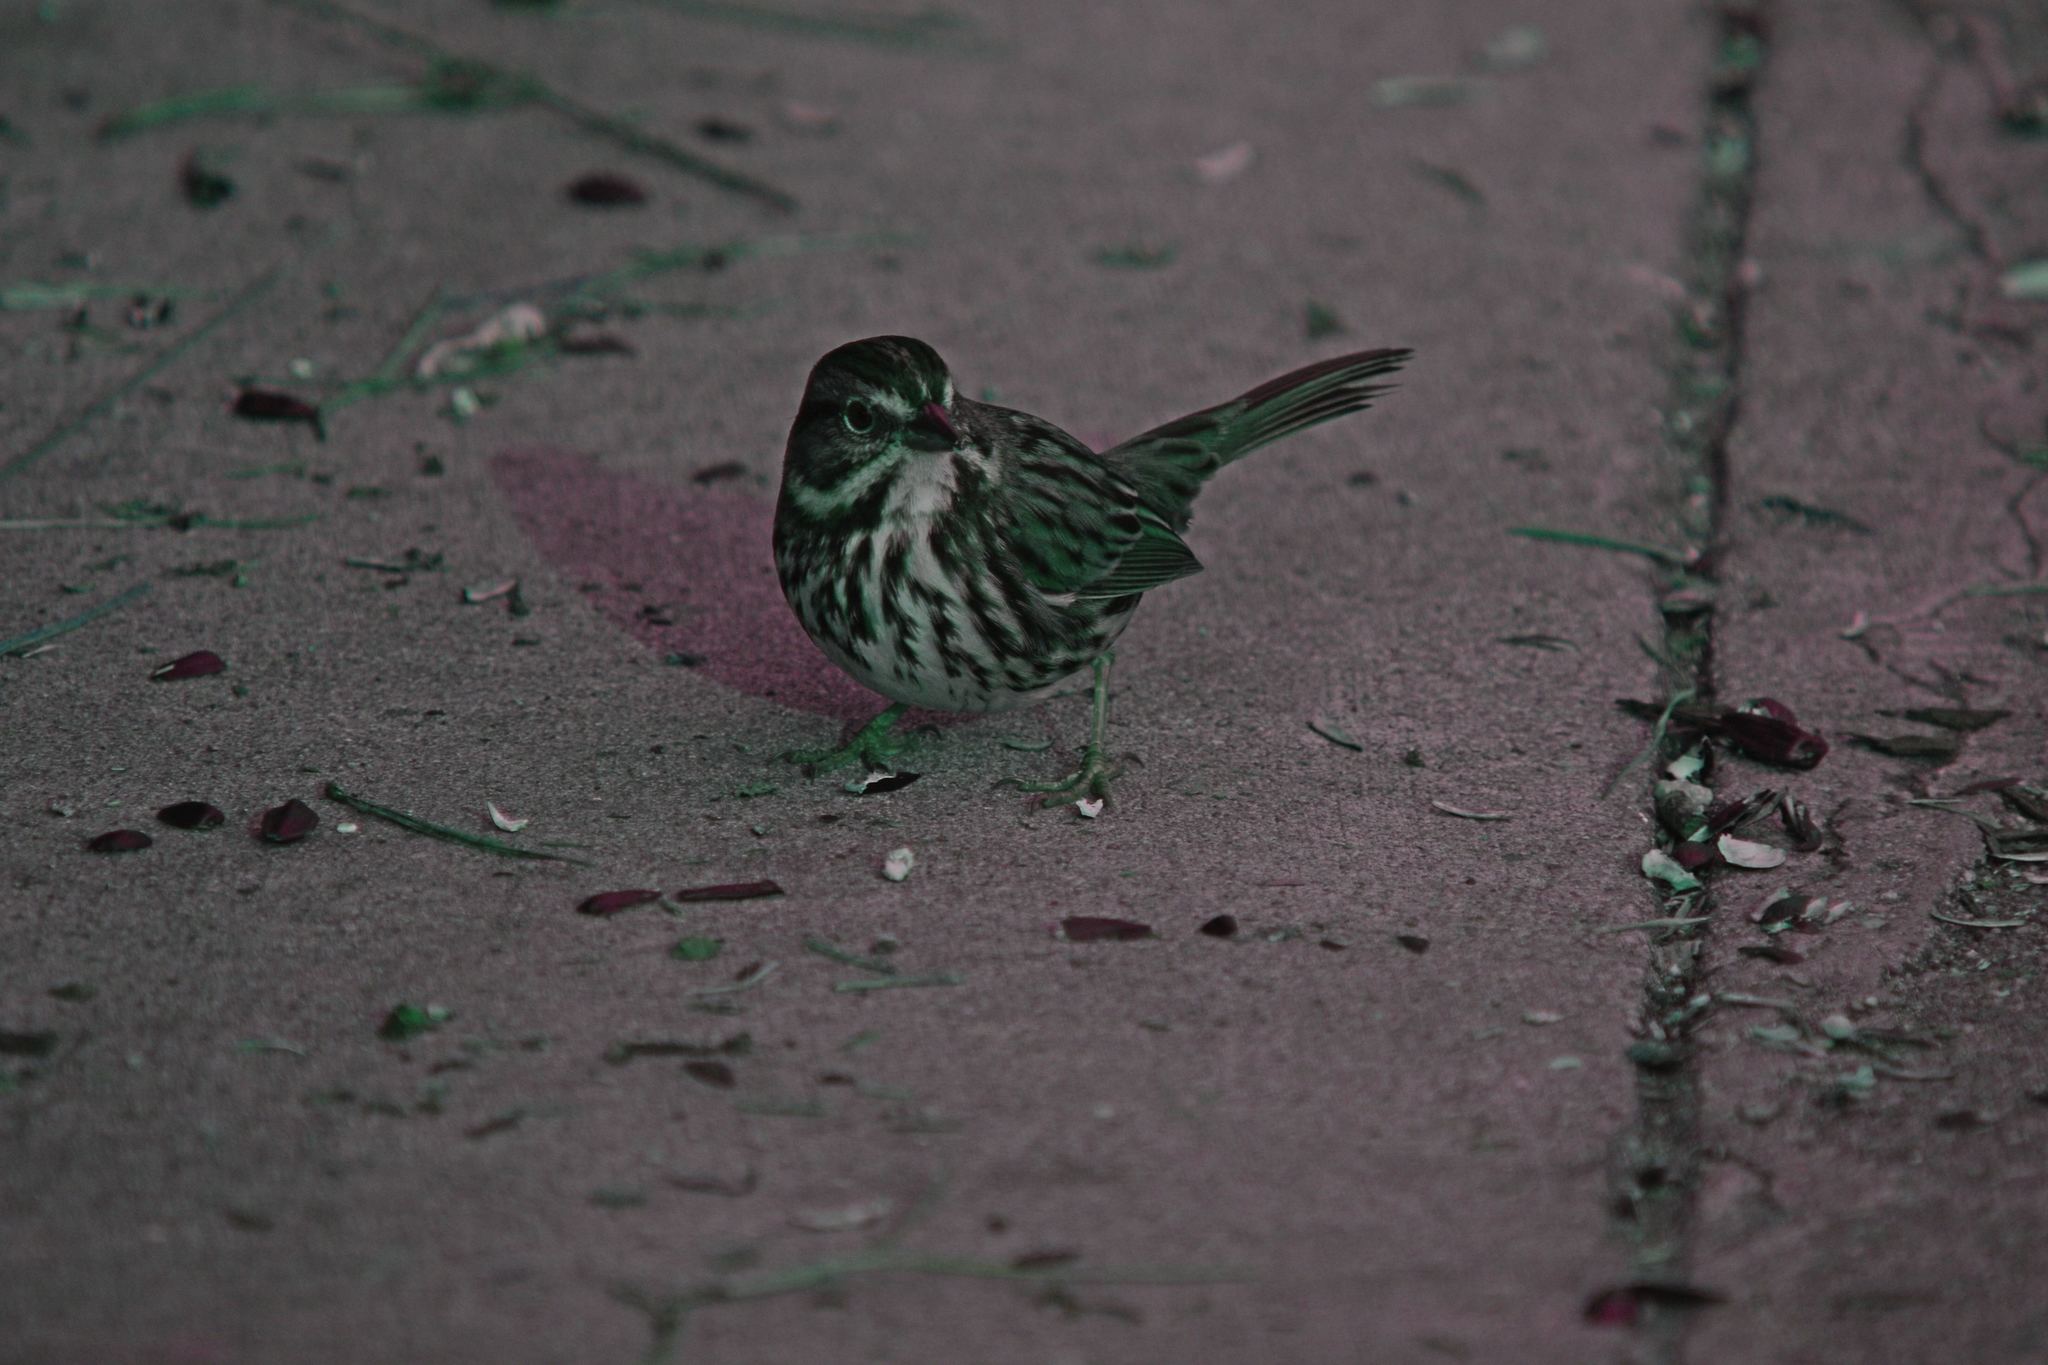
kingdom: Animalia
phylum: Chordata
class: Aves
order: Passeriformes
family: Passerellidae
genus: Melospiza
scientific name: Melospiza melodia
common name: Song sparrow
